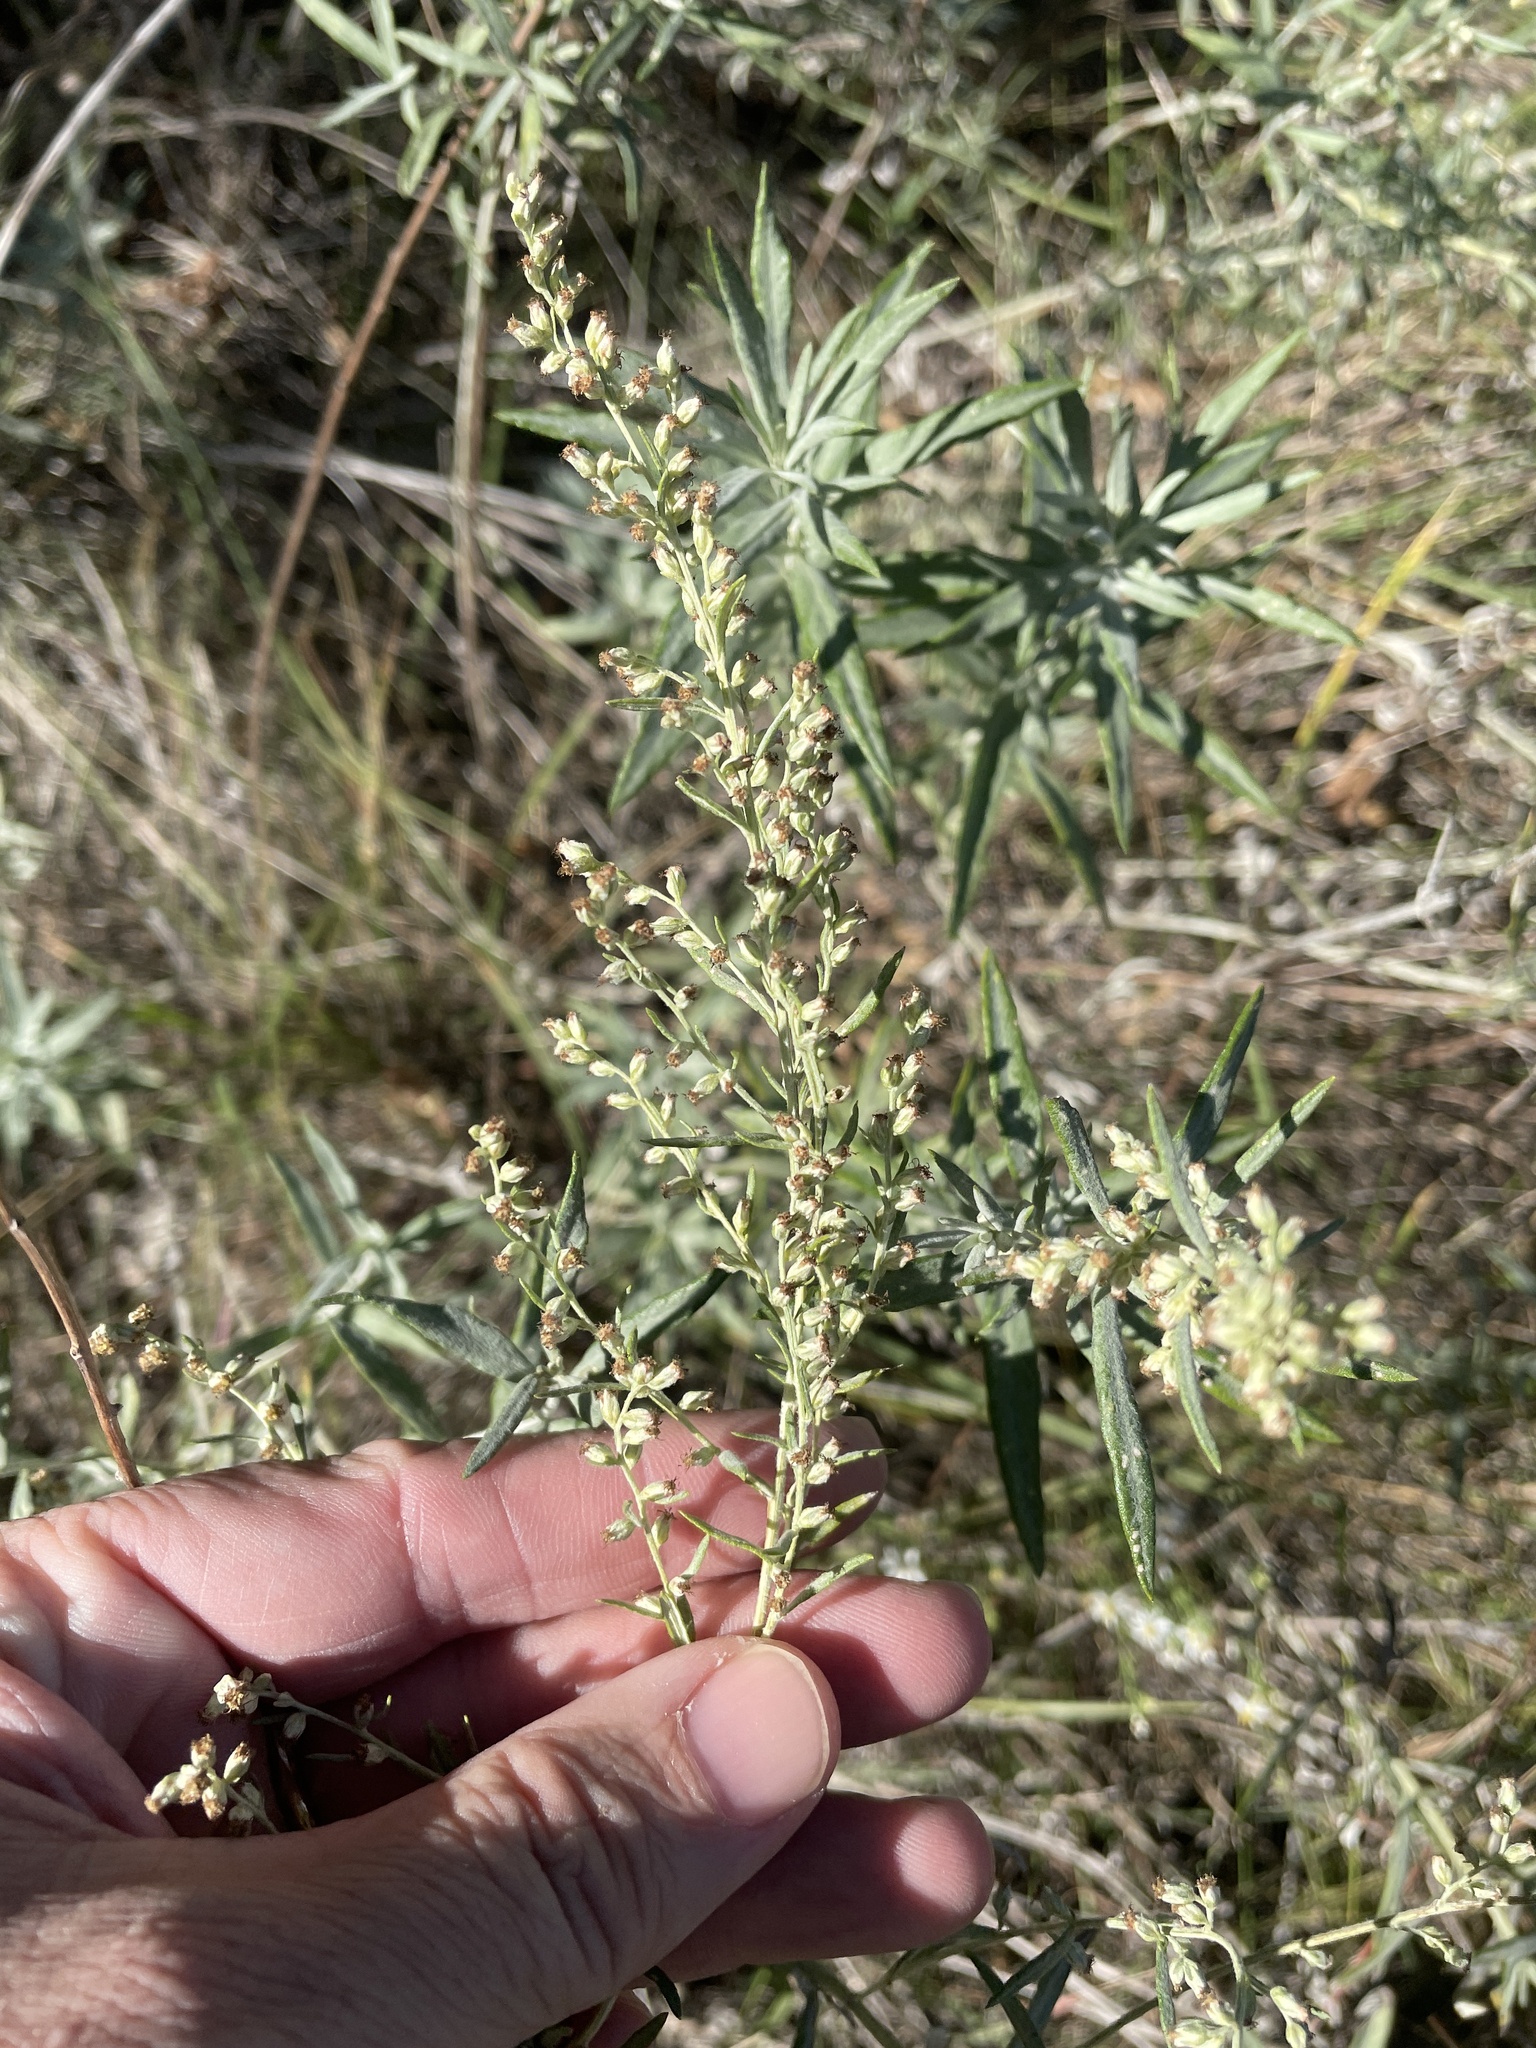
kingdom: Plantae
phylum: Tracheophyta
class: Magnoliopsida
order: Asterales
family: Asteraceae
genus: Artemisia
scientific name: Artemisia ludoviciana
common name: Western mugwort
